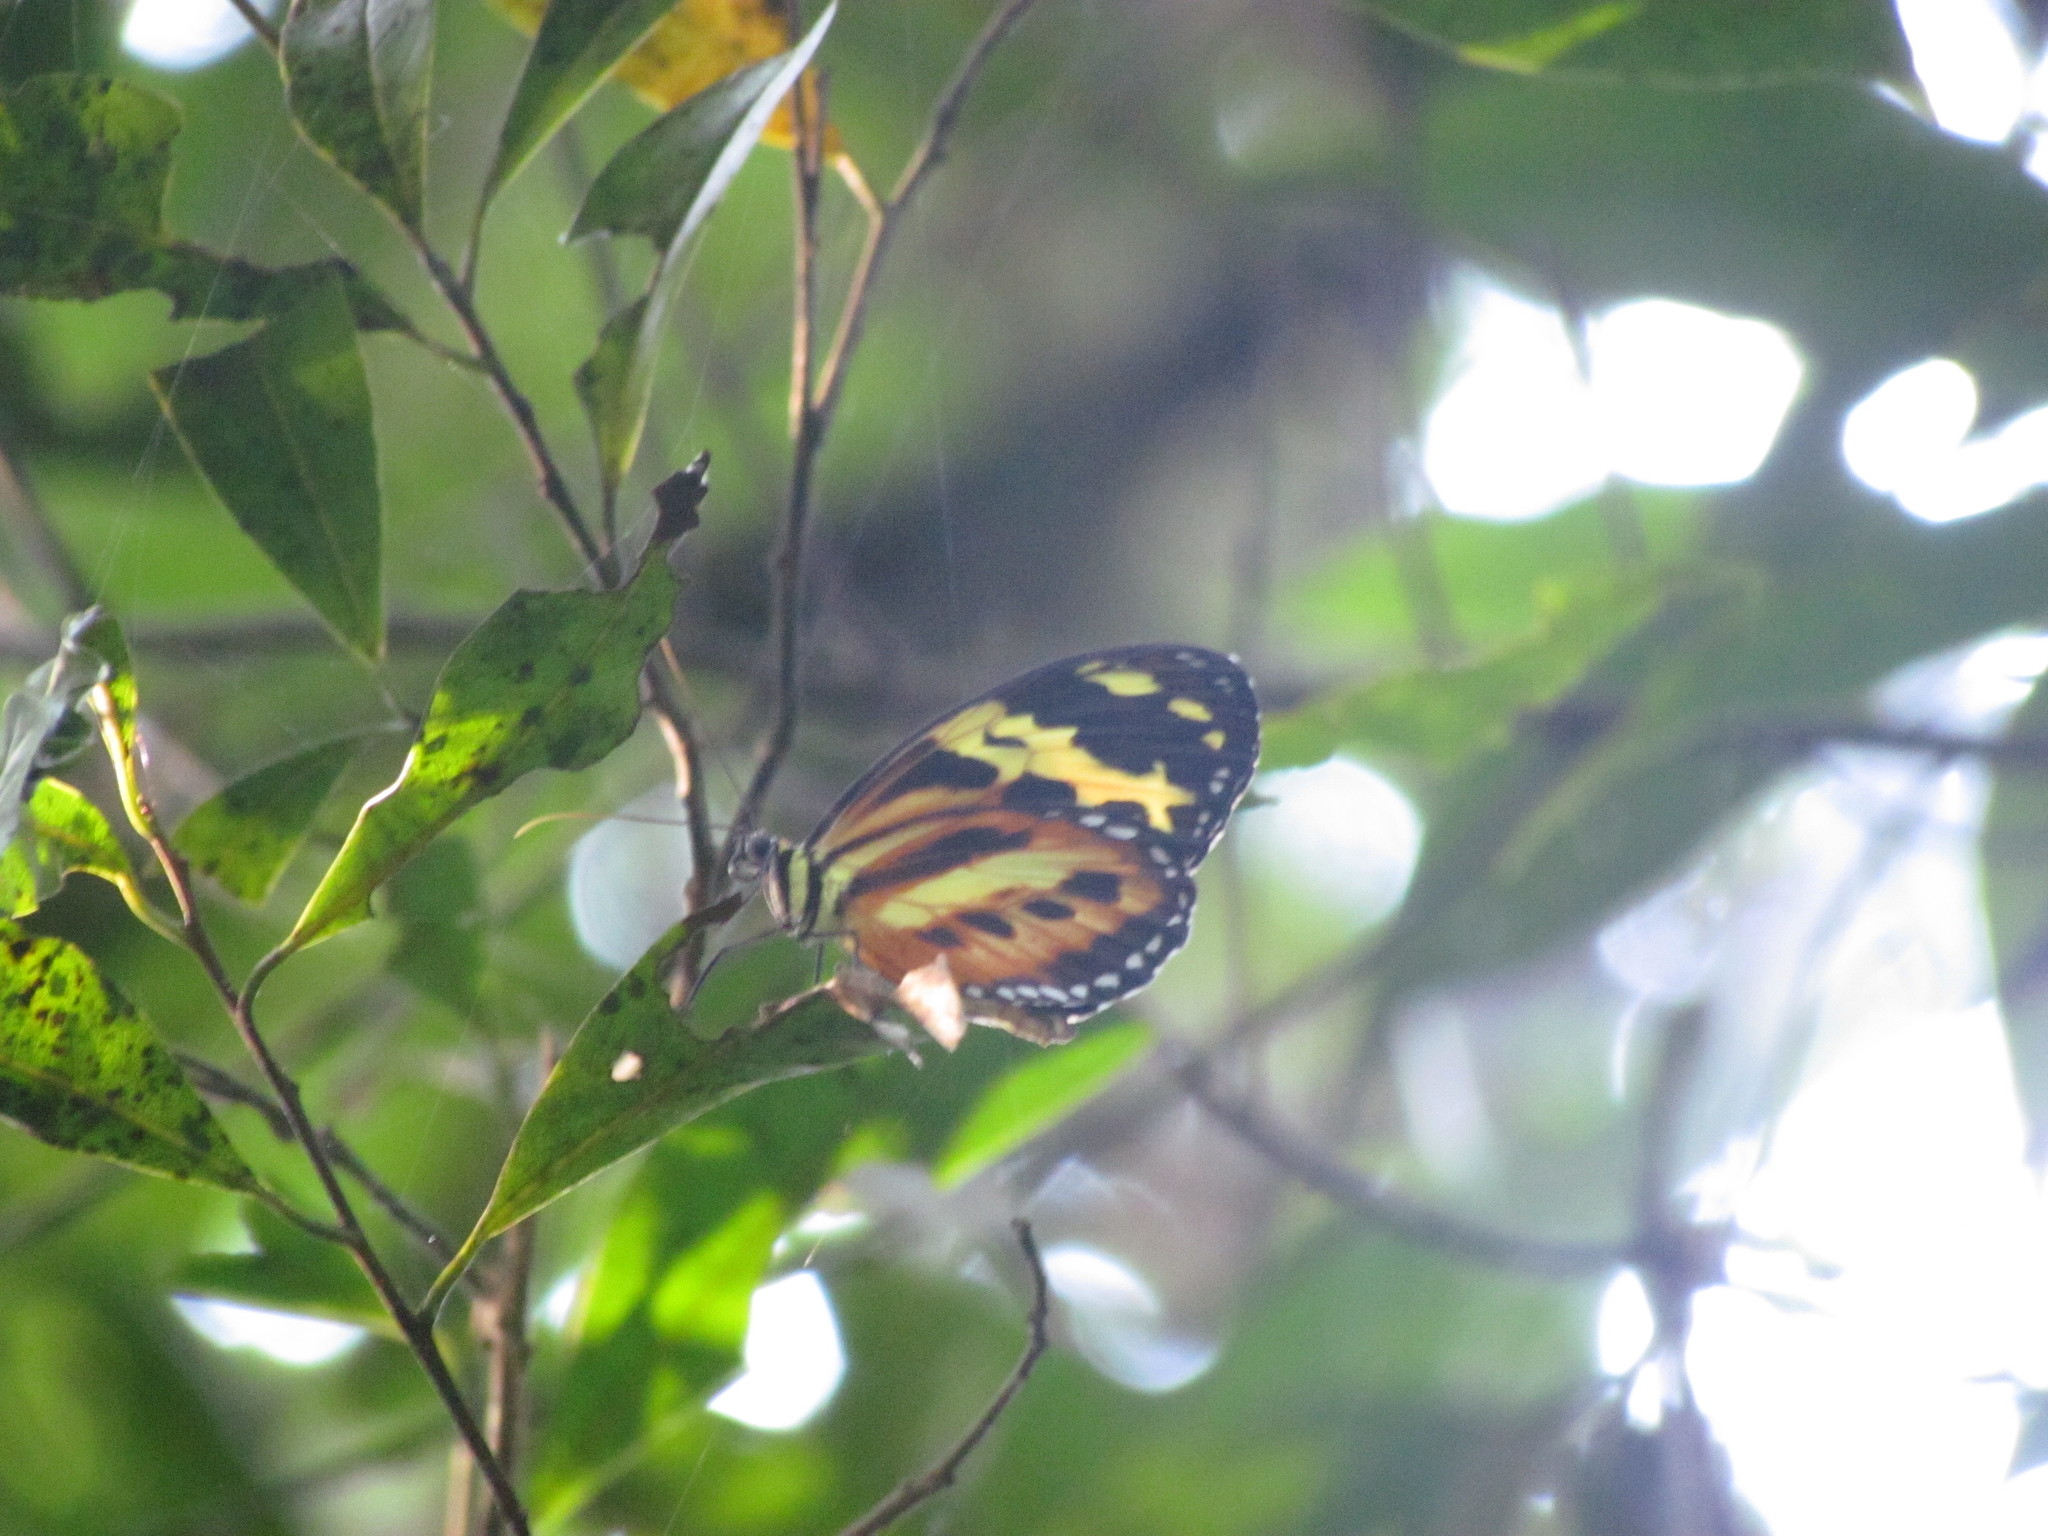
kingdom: Animalia
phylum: Arthropoda
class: Insecta
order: Lepidoptera
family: Nymphalidae
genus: Tithorea
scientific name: Tithorea harmonia
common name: Harmonia tigerwing
